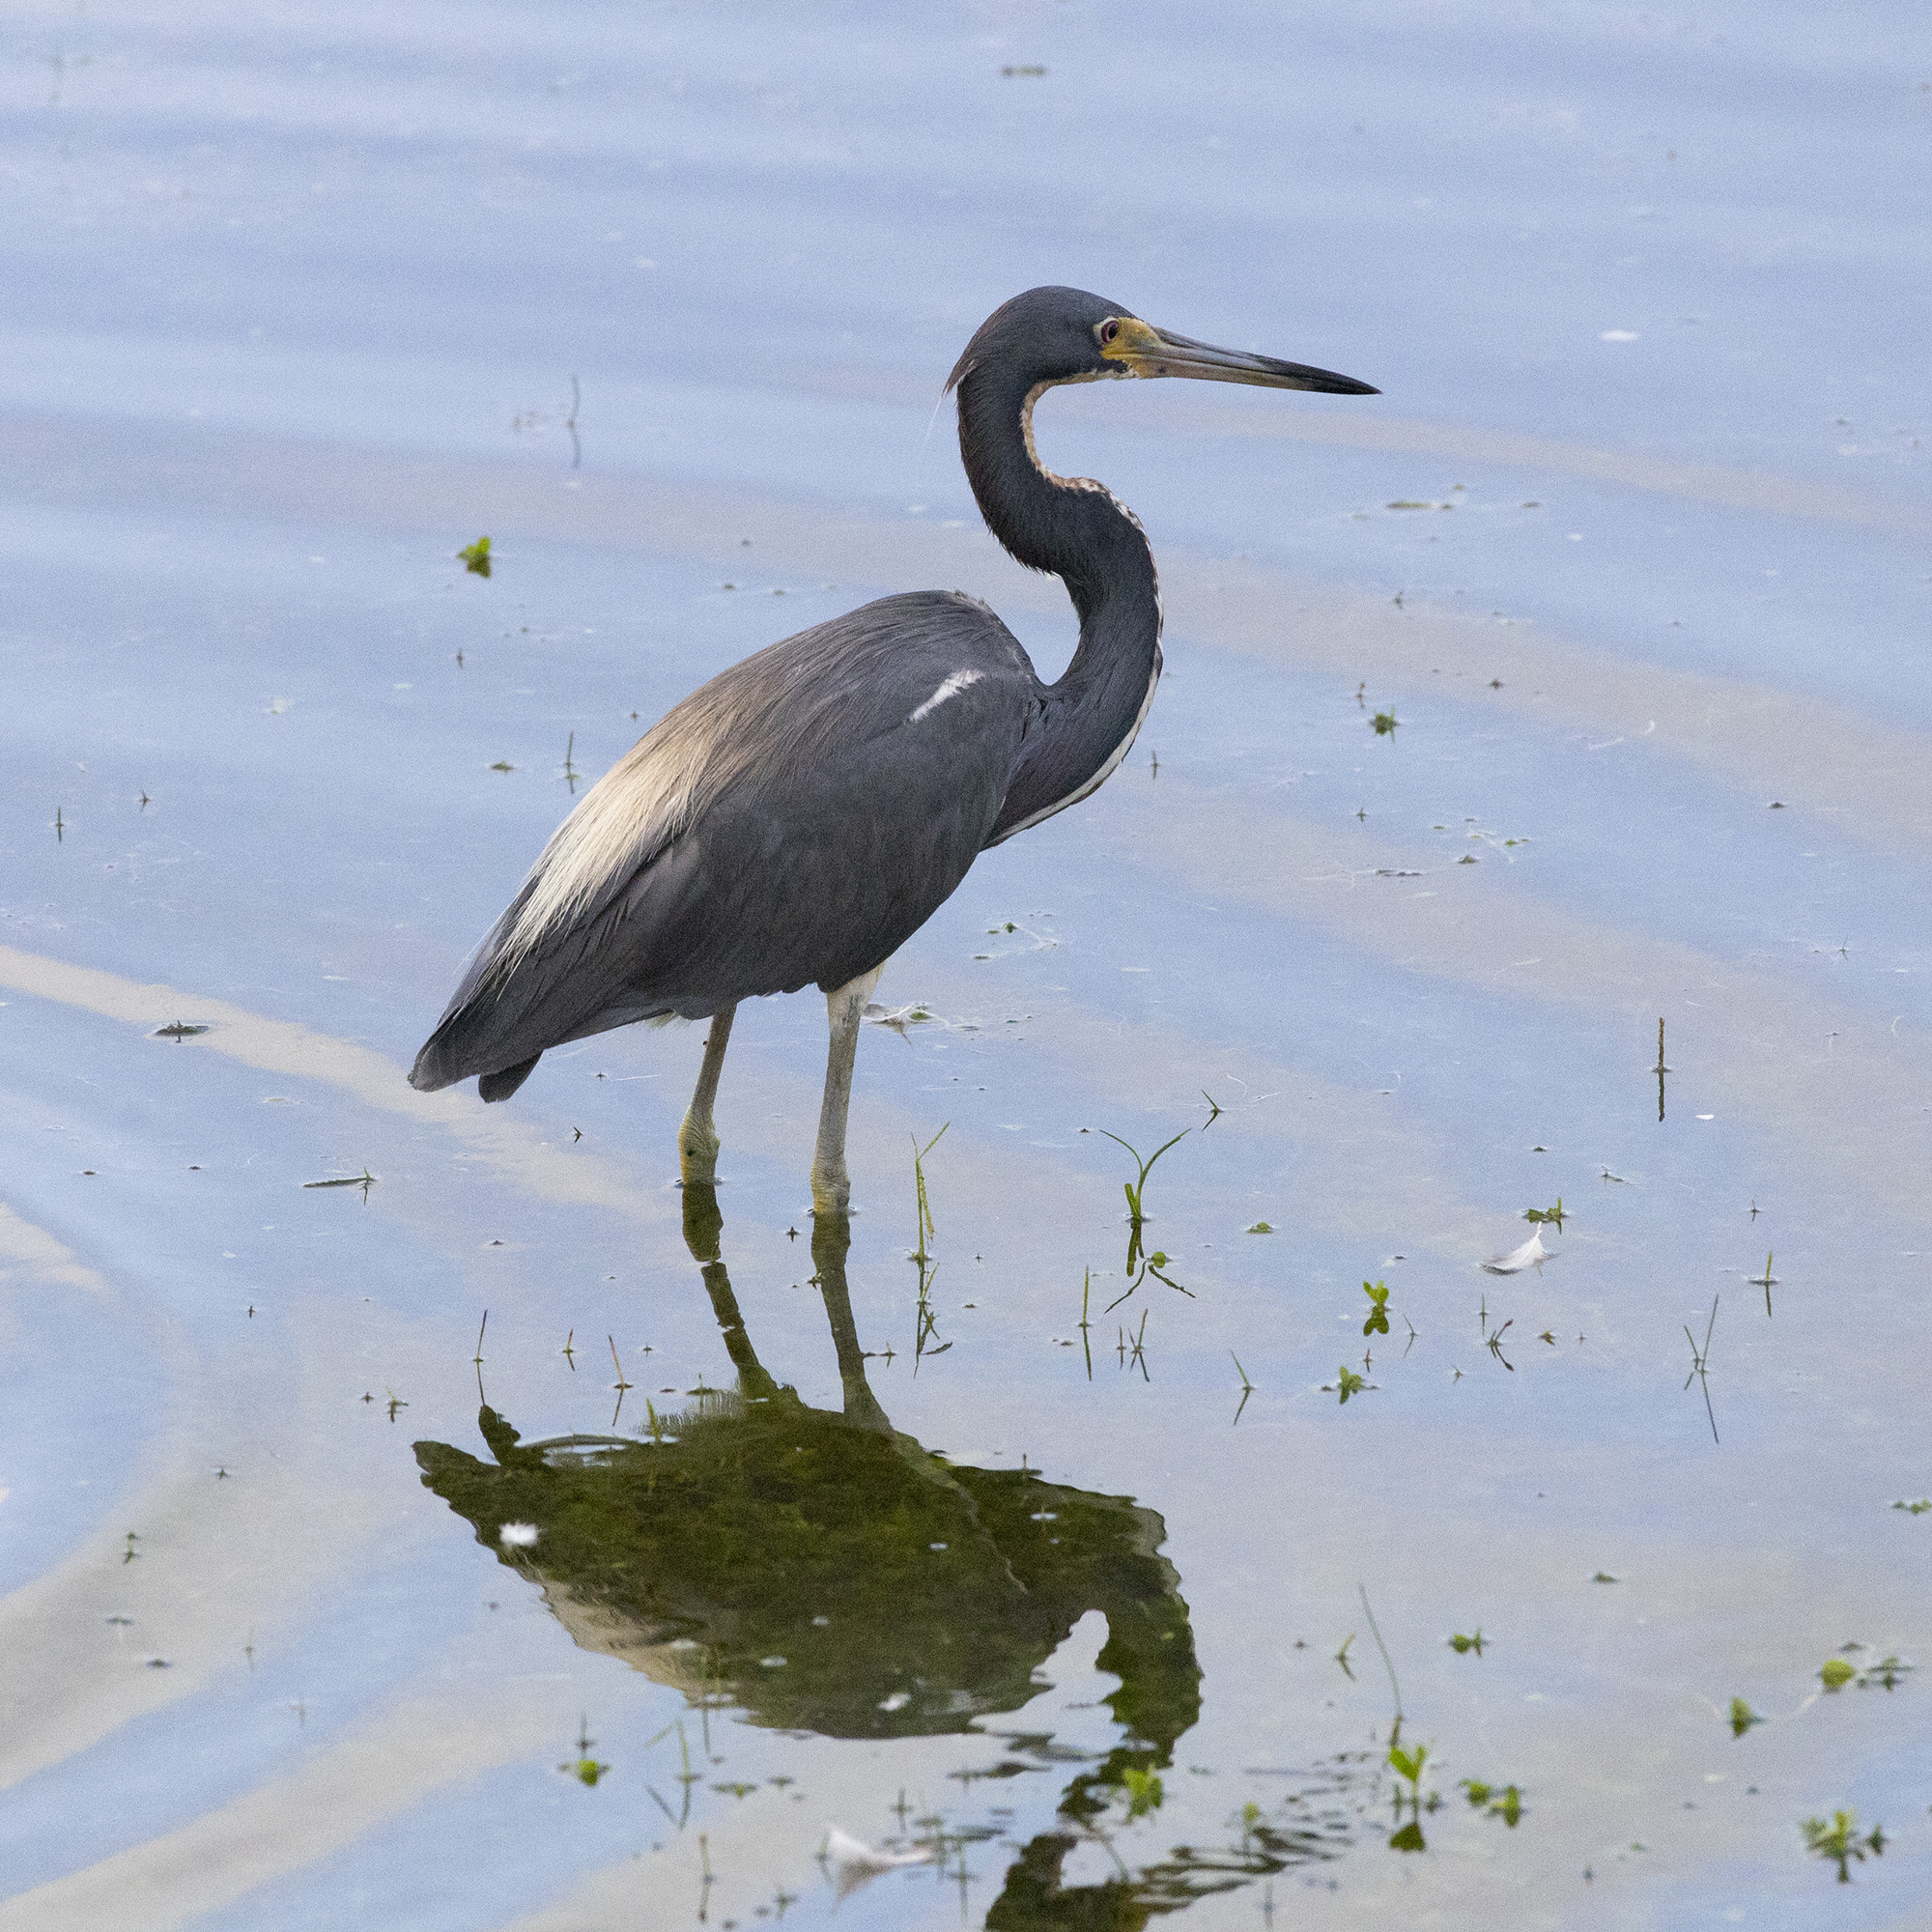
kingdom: Animalia
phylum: Chordata
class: Aves
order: Pelecaniformes
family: Ardeidae
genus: Egretta
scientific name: Egretta tricolor
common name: Tricolored heron
